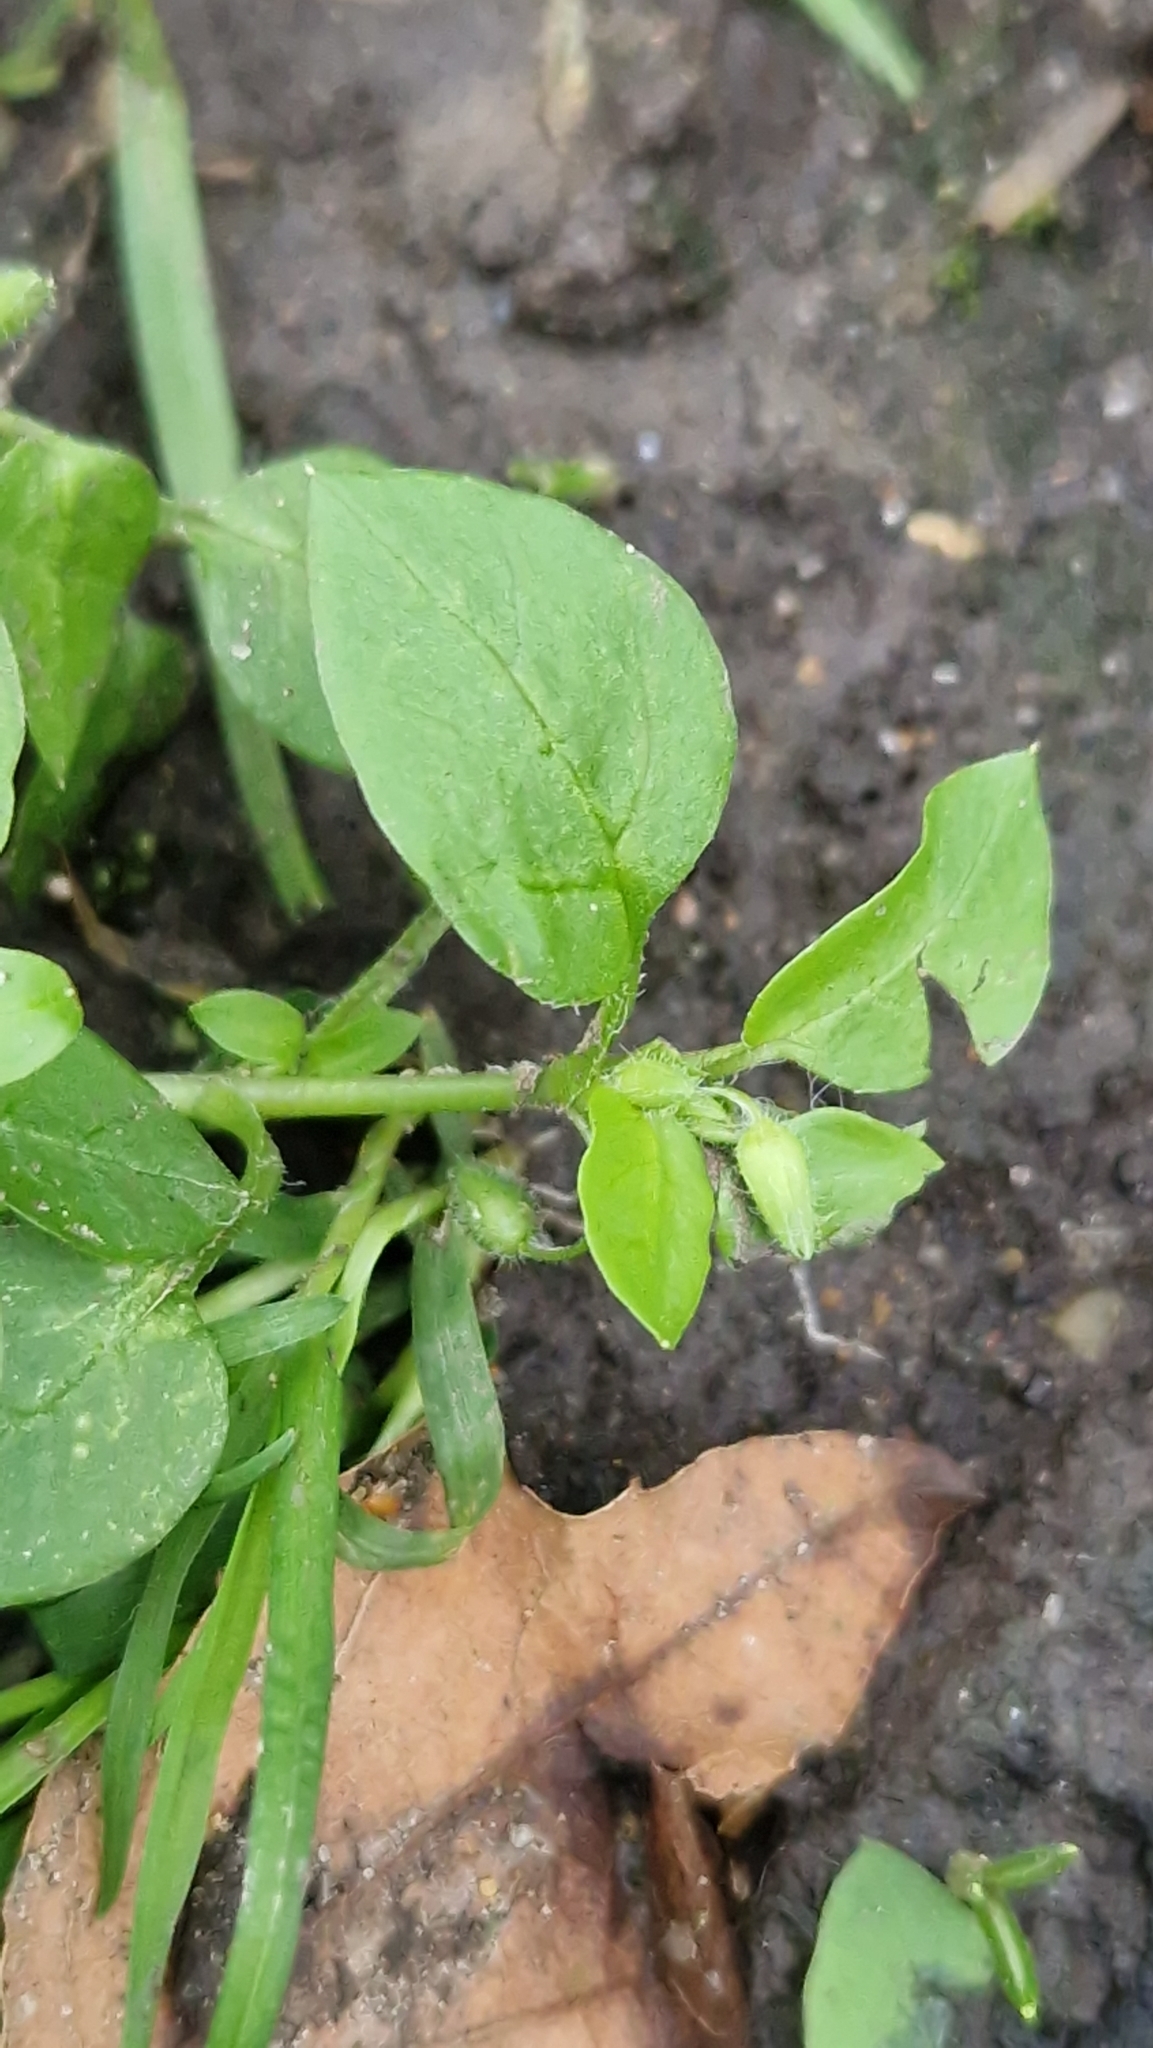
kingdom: Plantae
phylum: Tracheophyta
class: Magnoliopsida
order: Caryophyllales
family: Caryophyllaceae
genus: Stellaria
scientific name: Stellaria media
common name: Common chickweed
